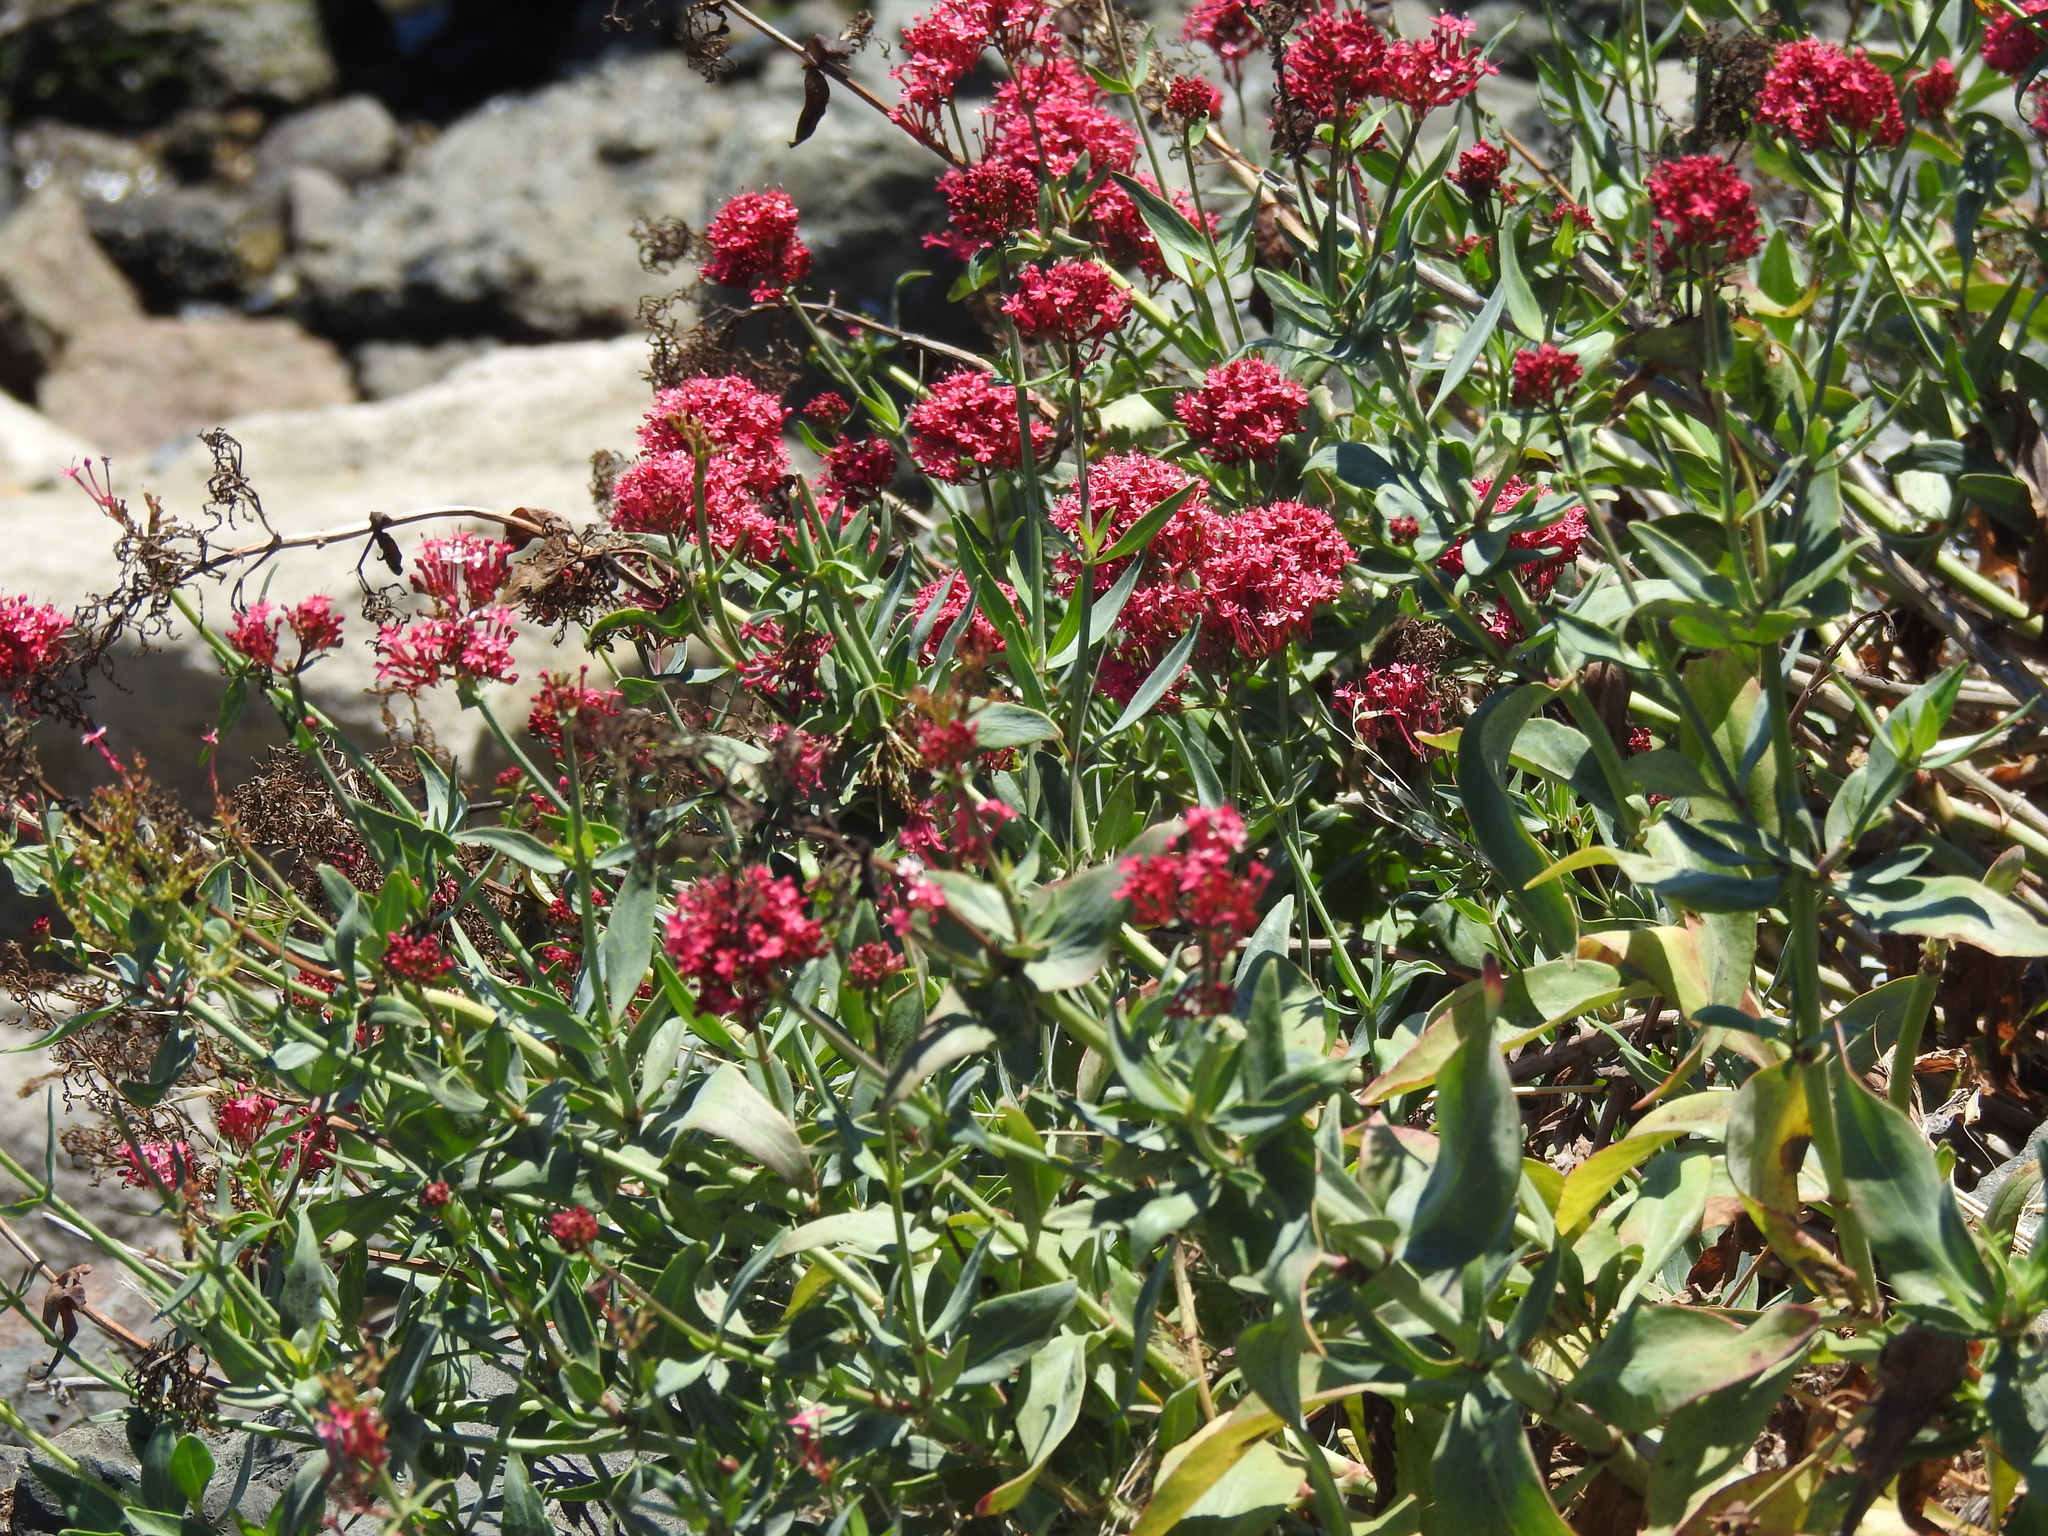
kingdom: Plantae
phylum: Tracheophyta
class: Magnoliopsida
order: Dipsacales
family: Caprifoliaceae
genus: Centranthus
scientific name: Centranthus ruber
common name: Red valerian
